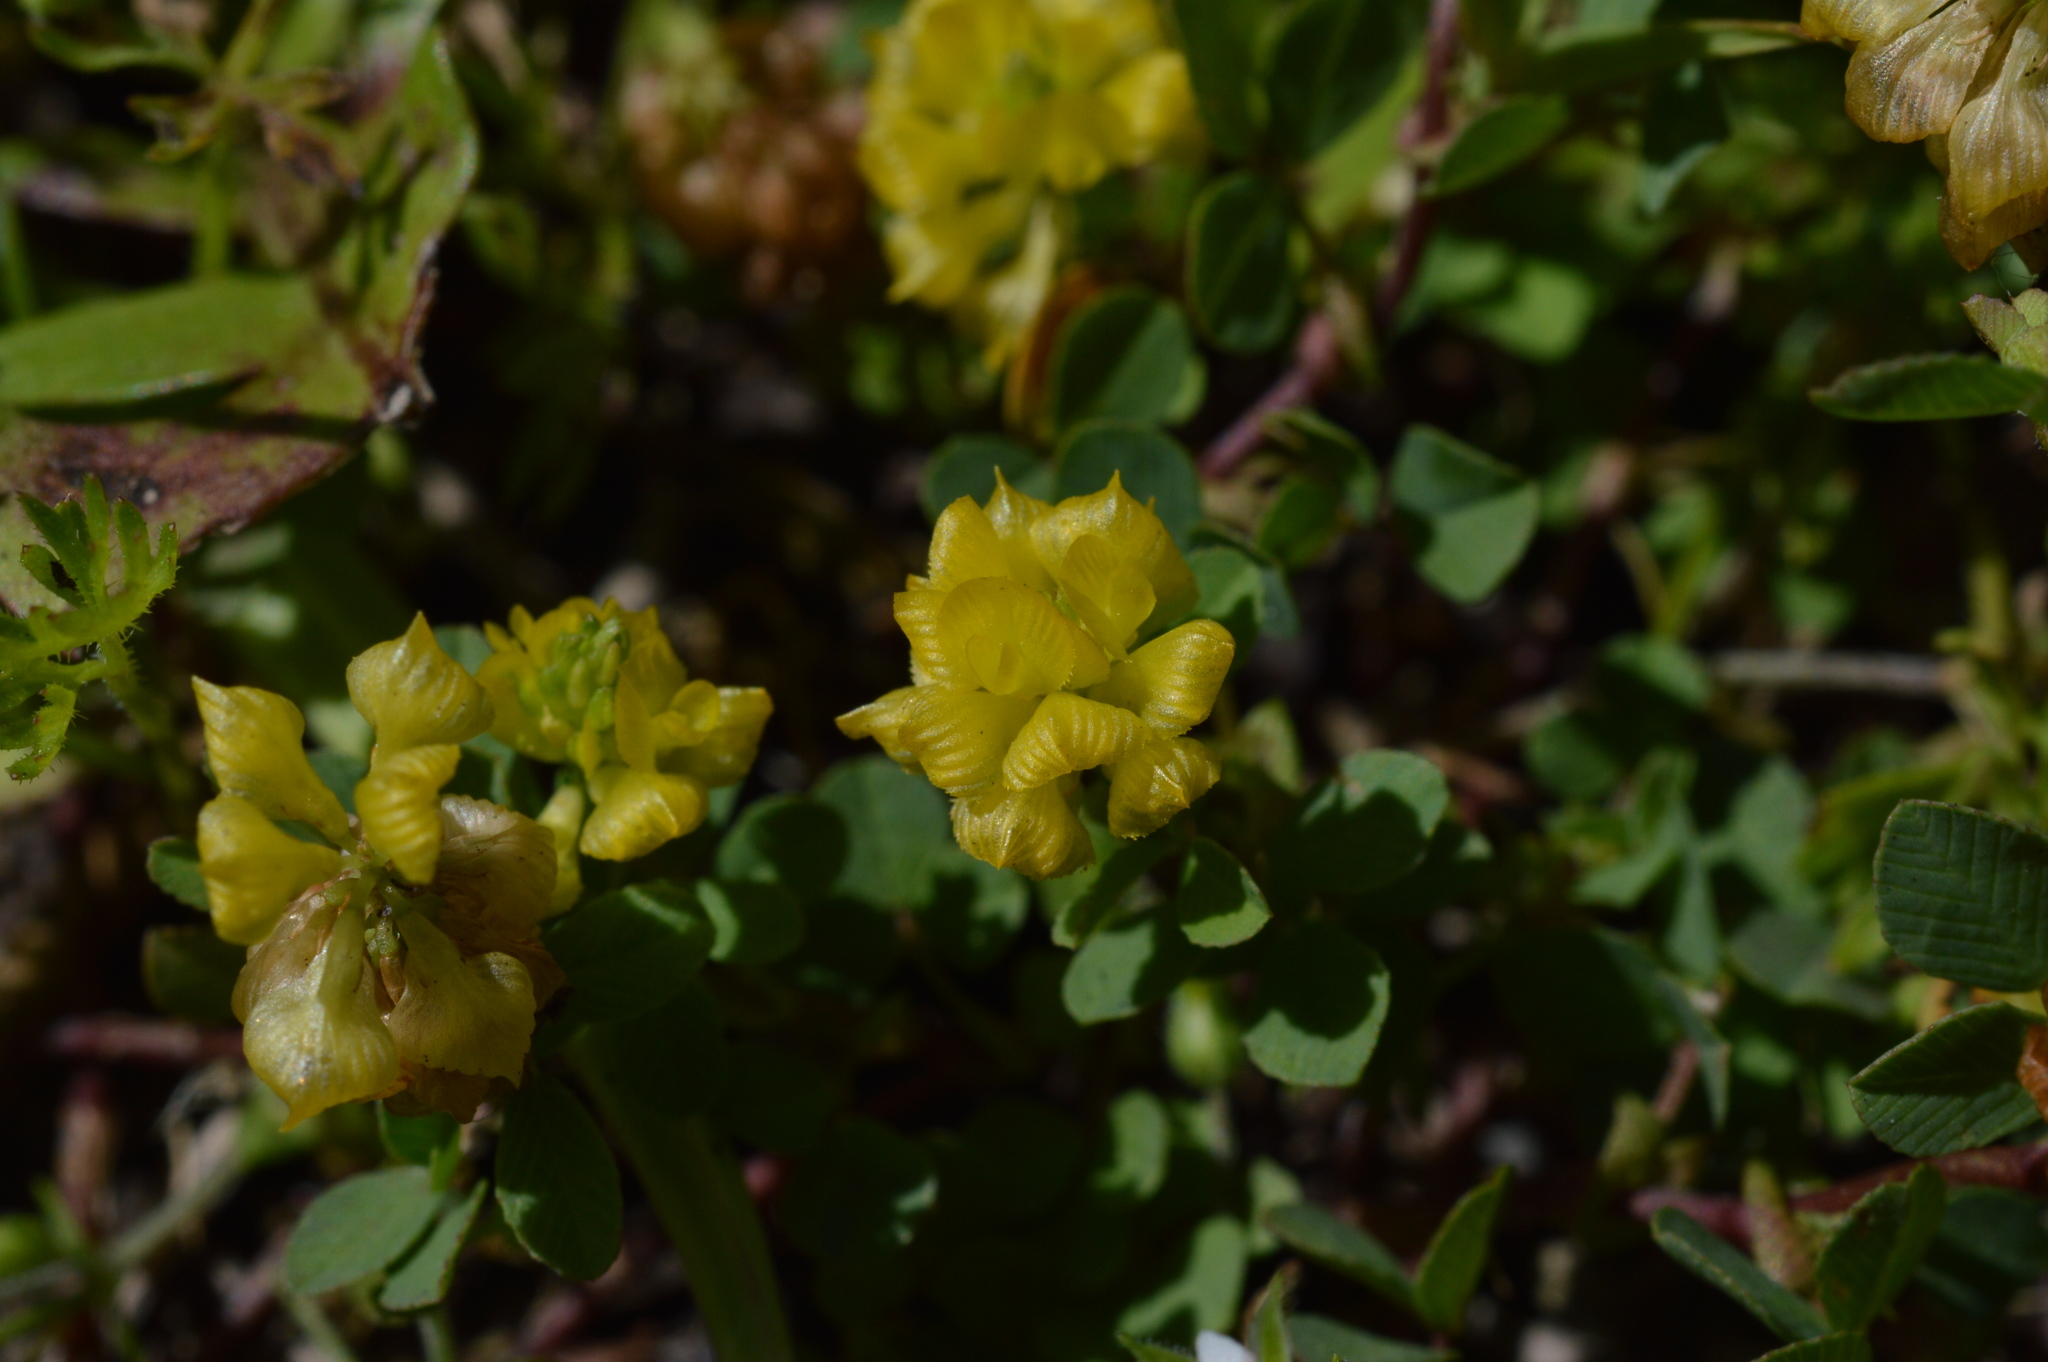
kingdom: Plantae
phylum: Tracheophyta
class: Magnoliopsida
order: Fabales
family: Fabaceae
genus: Trifolium
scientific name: Trifolium campestre
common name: Field clover
